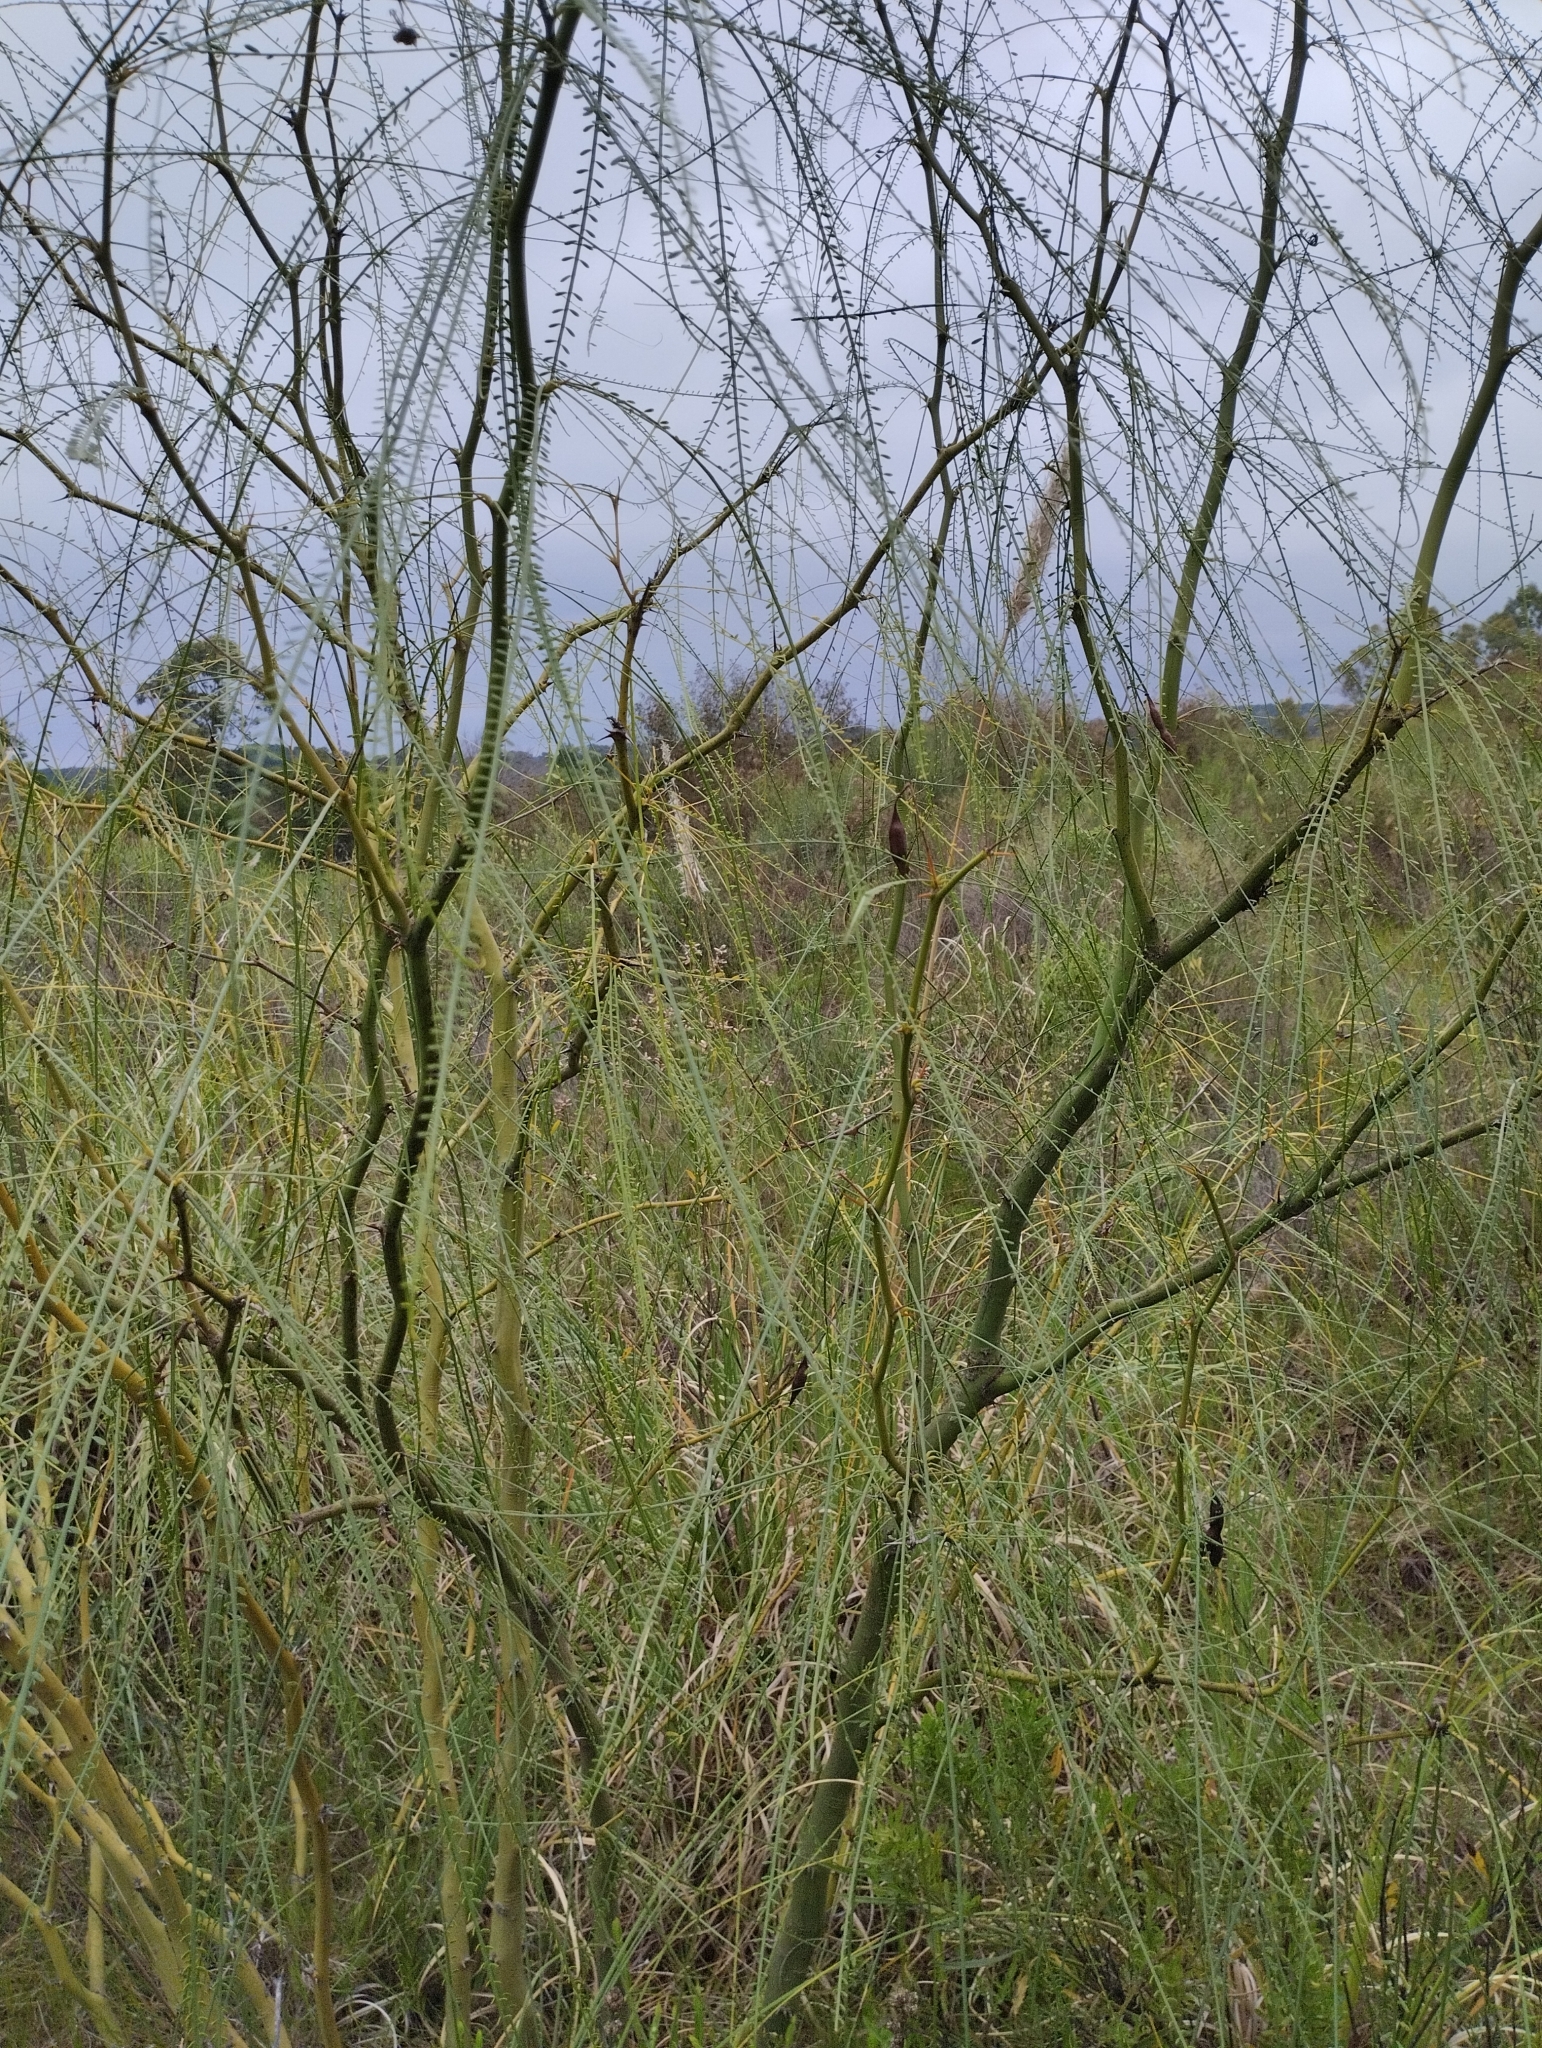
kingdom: Plantae
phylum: Tracheophyta
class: Magnoliopsida
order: Fabales
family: Fabaceae
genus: Parkinsonia
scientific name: Parkinsonia aculeata
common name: Jerusalem thorn
